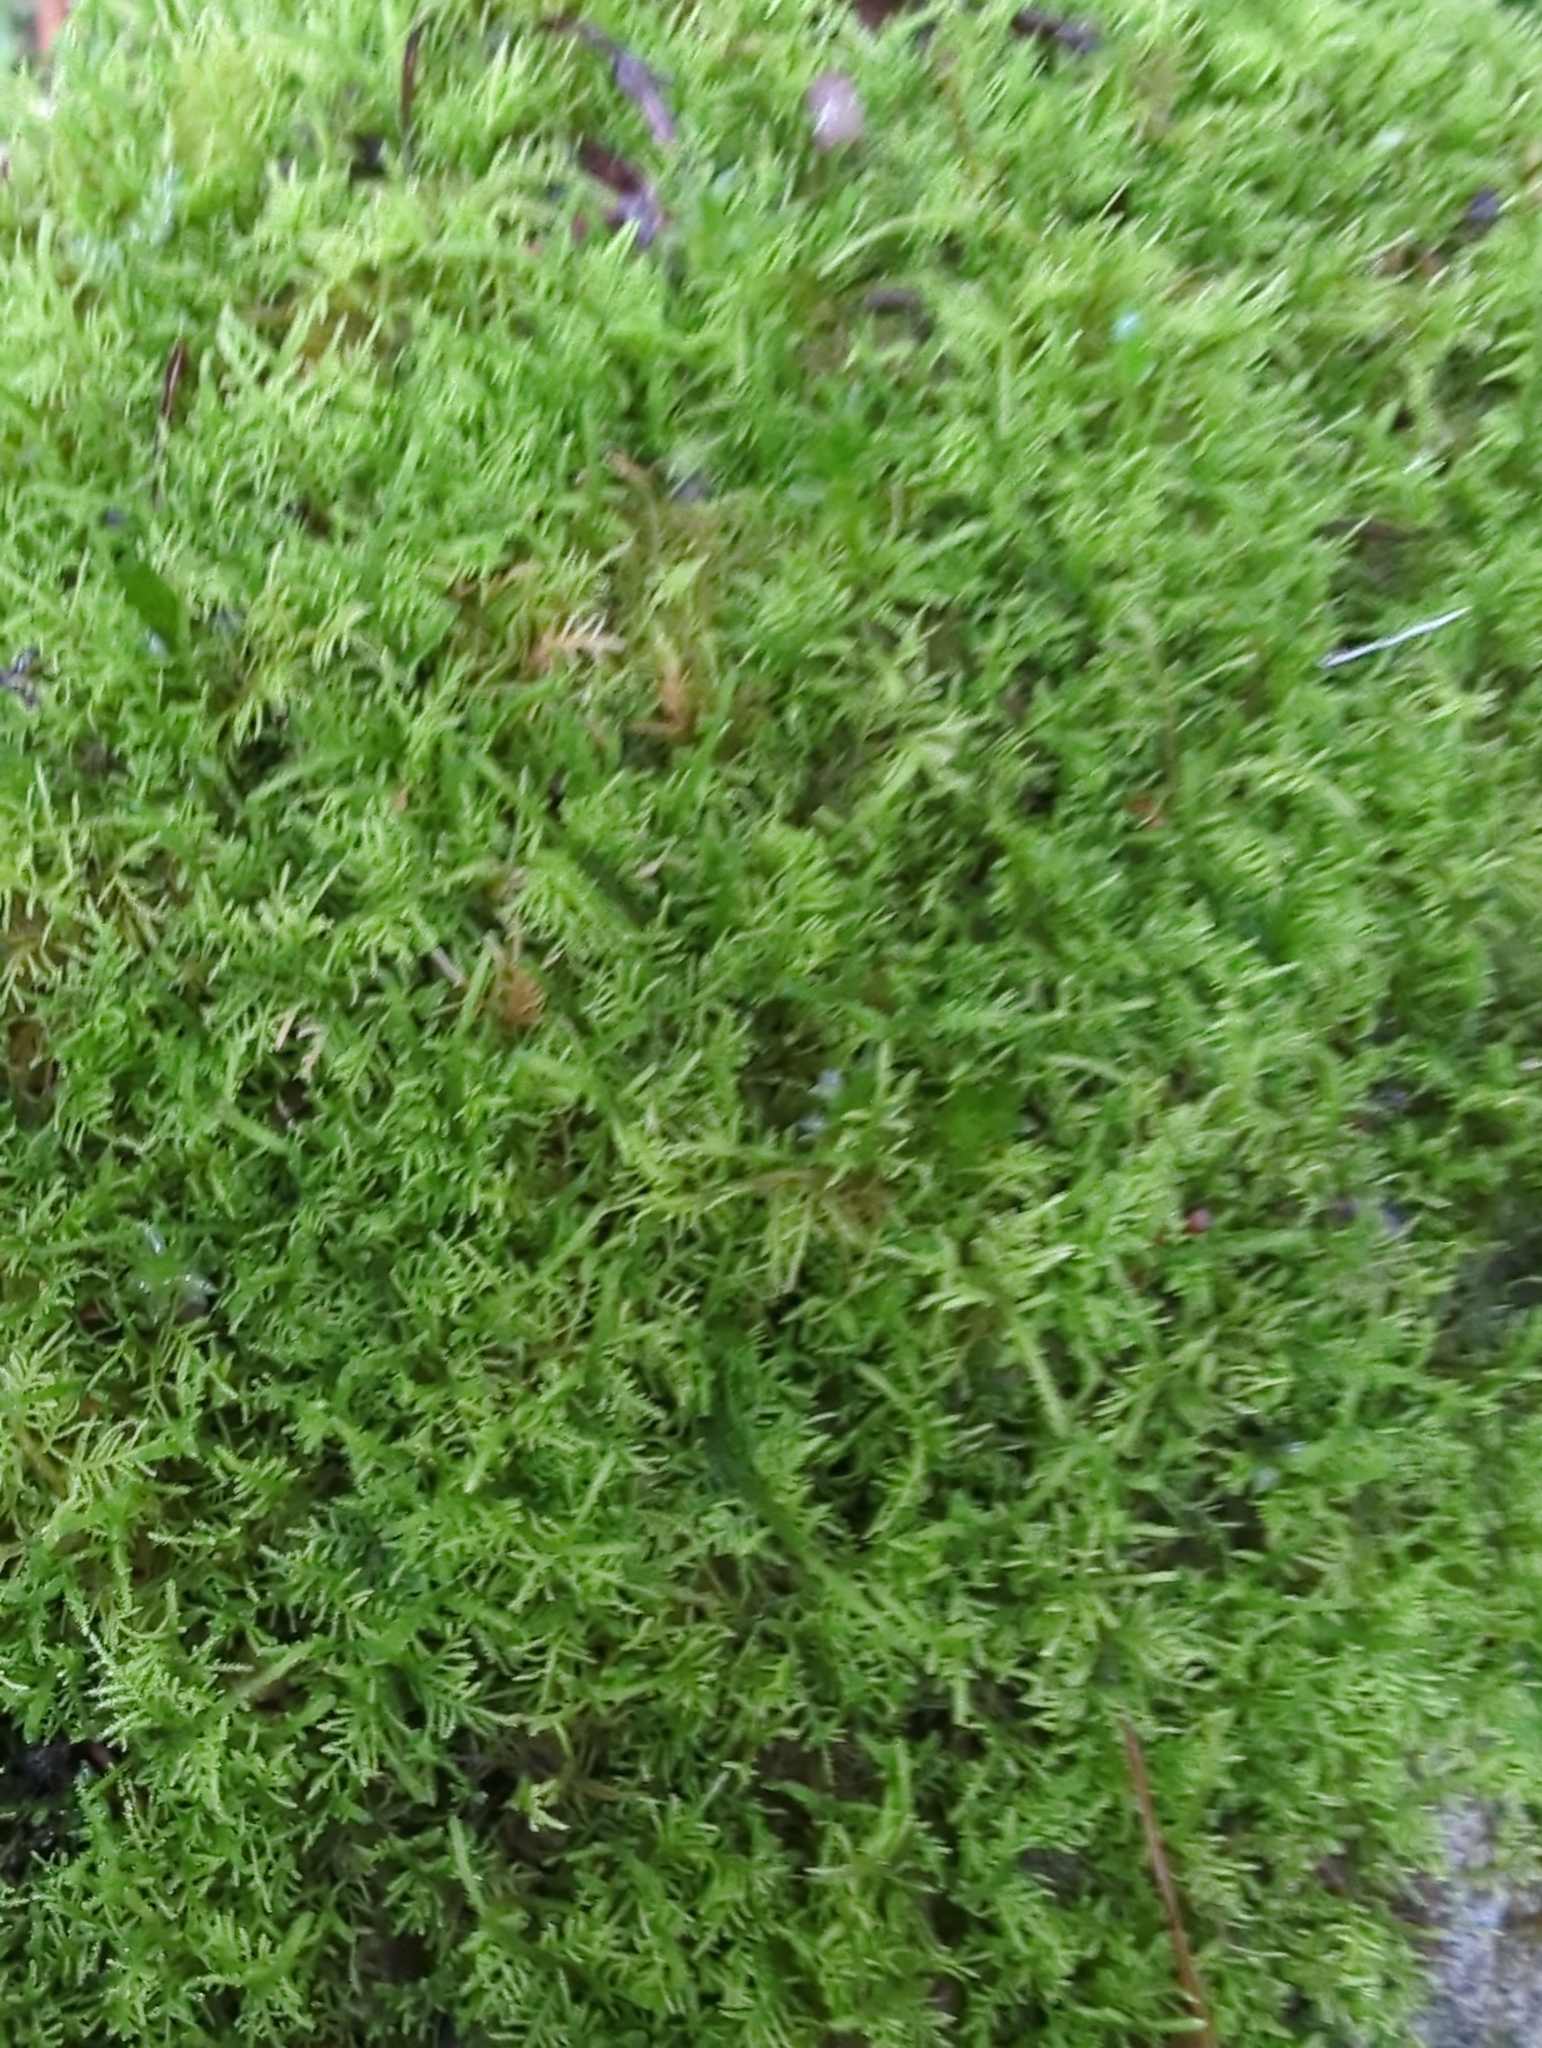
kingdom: Plantae
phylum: Bryophyta
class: Bryopsida
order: Hypnales
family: Thuidiaceae
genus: Thuidiopsis
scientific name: Thuidiopsis sparsa
